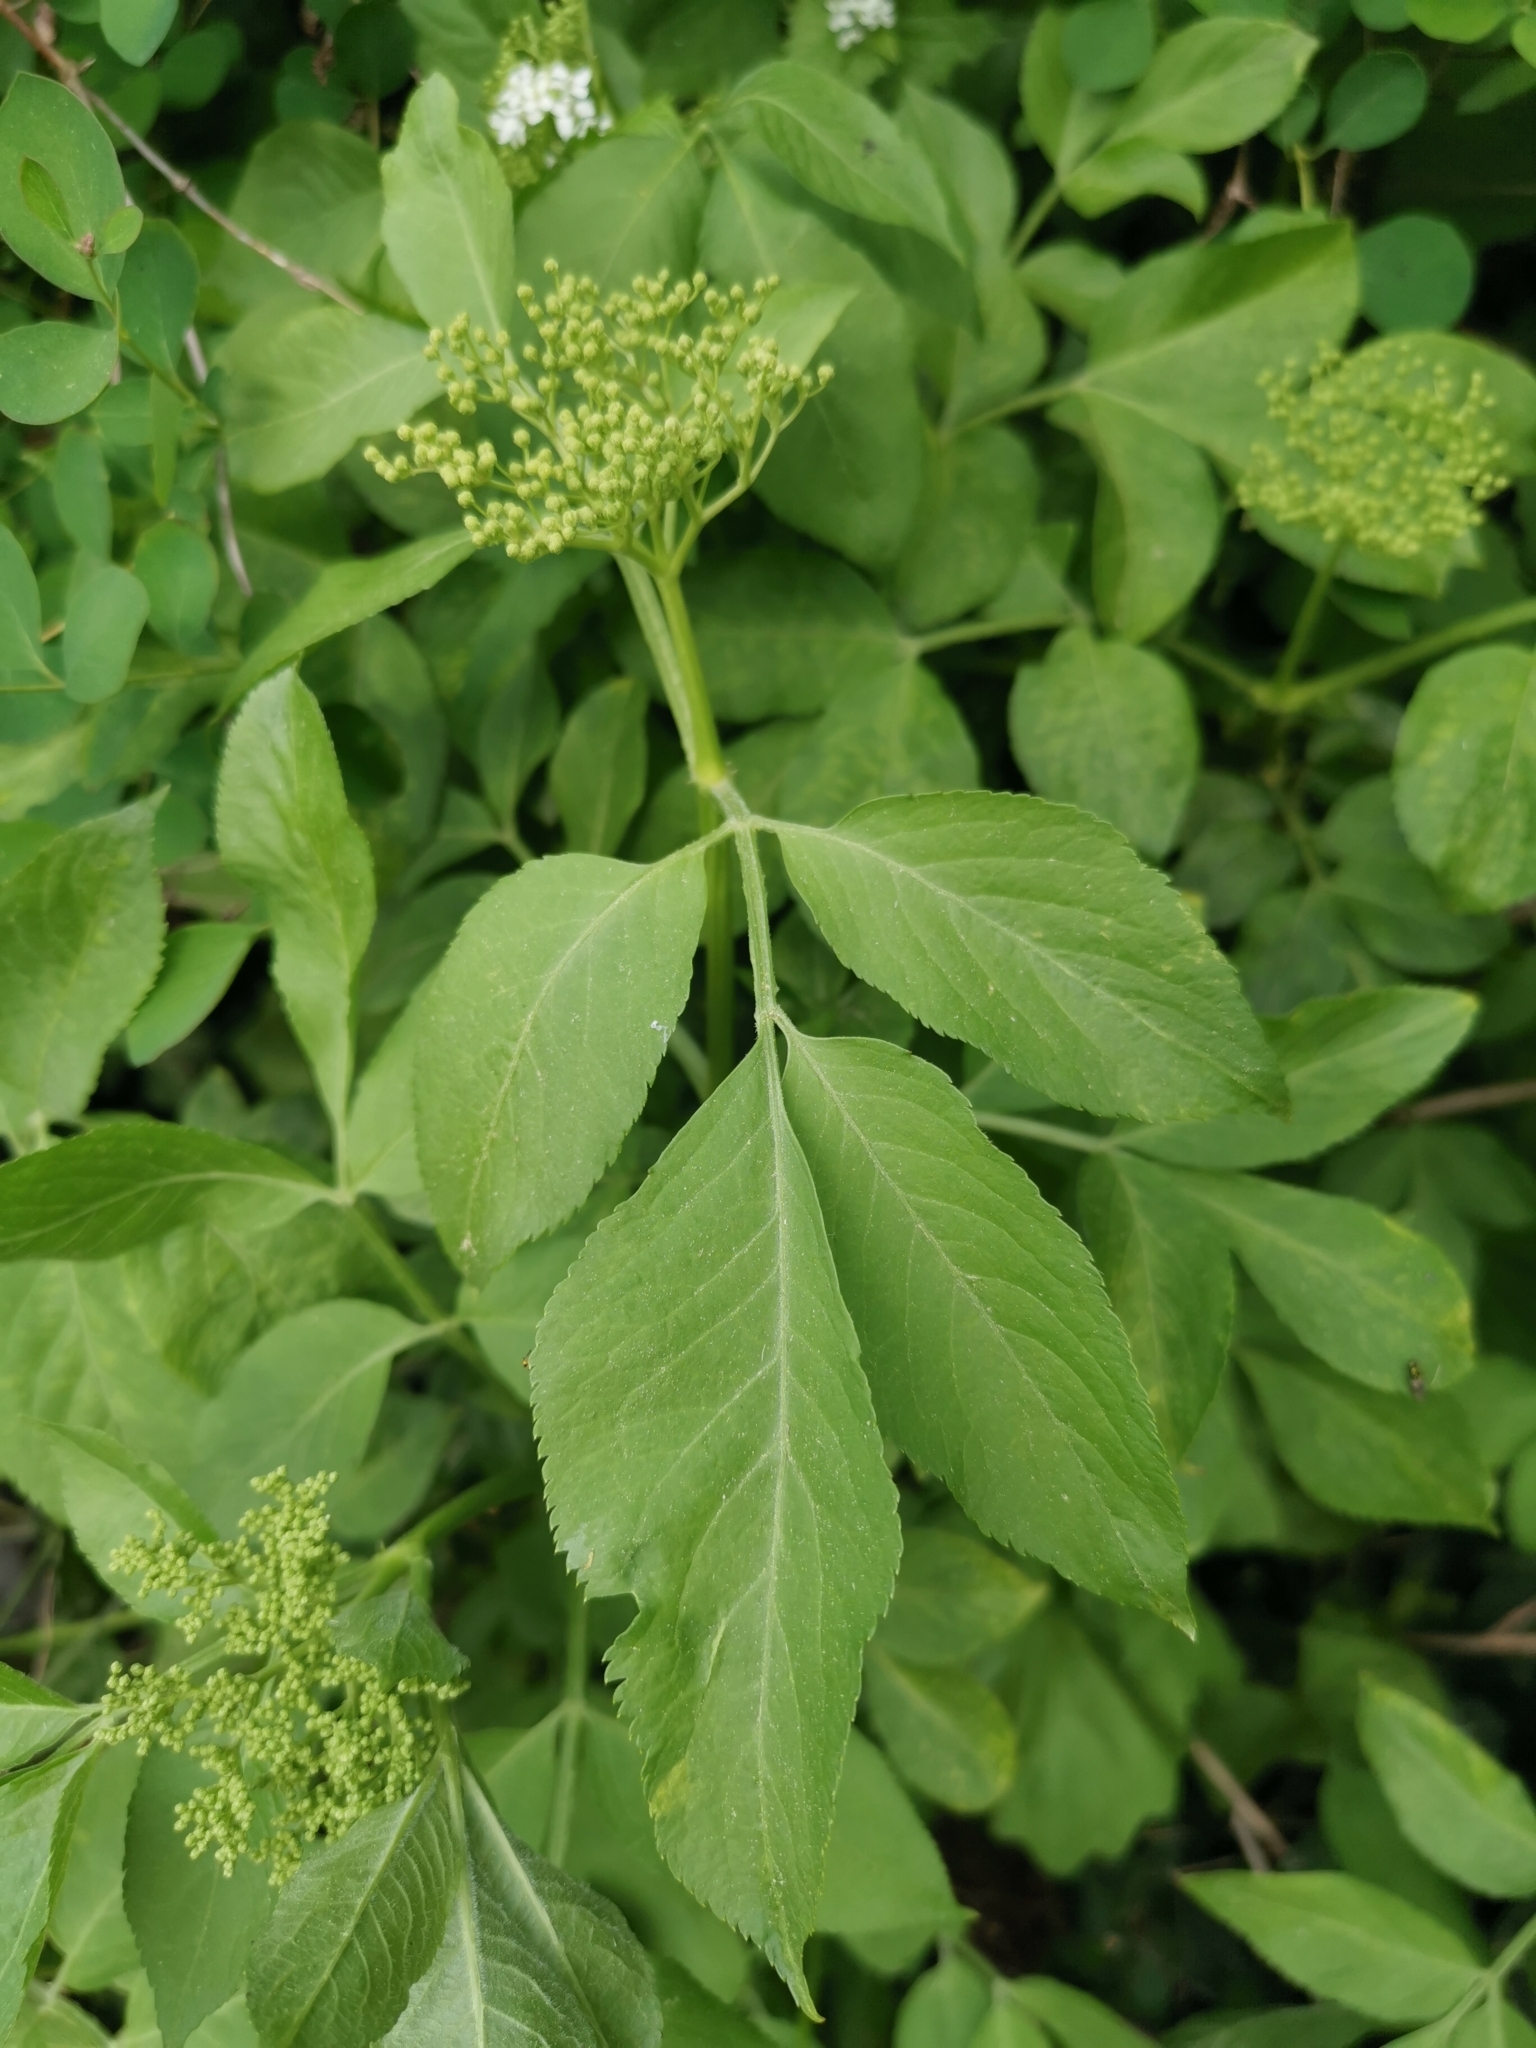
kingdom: Plantae
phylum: Tracheophyta
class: Magnoliopsida
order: Dipsacales
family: Viburnaceae
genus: Sambucus
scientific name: Sambucus nigra
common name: Elder
